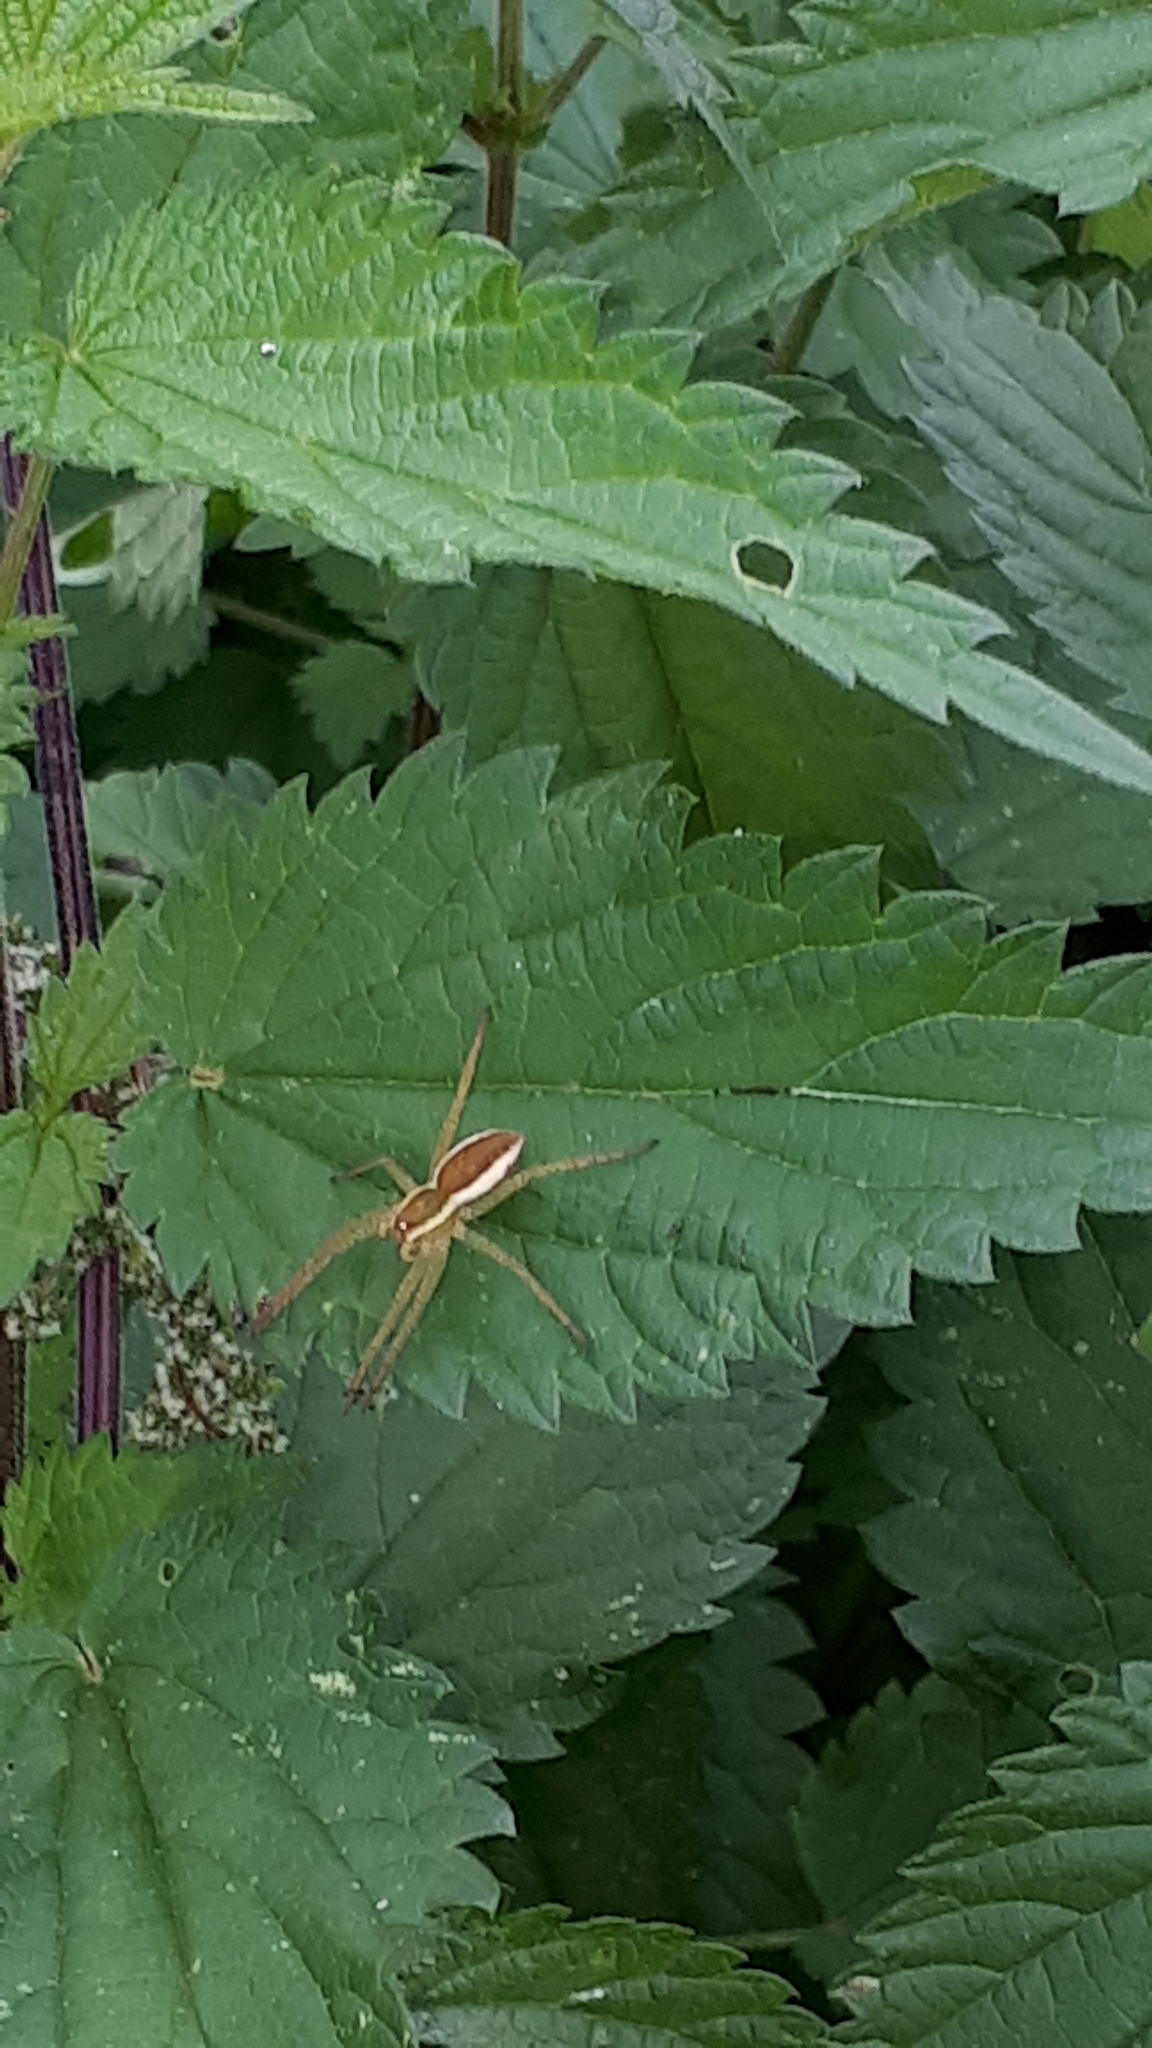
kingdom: Animalia
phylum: Arthropoda
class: Arachnida
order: Araneae
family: Pisauridae
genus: Dolomedes
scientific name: Dolomedes fimbriatus
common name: Raft spider
